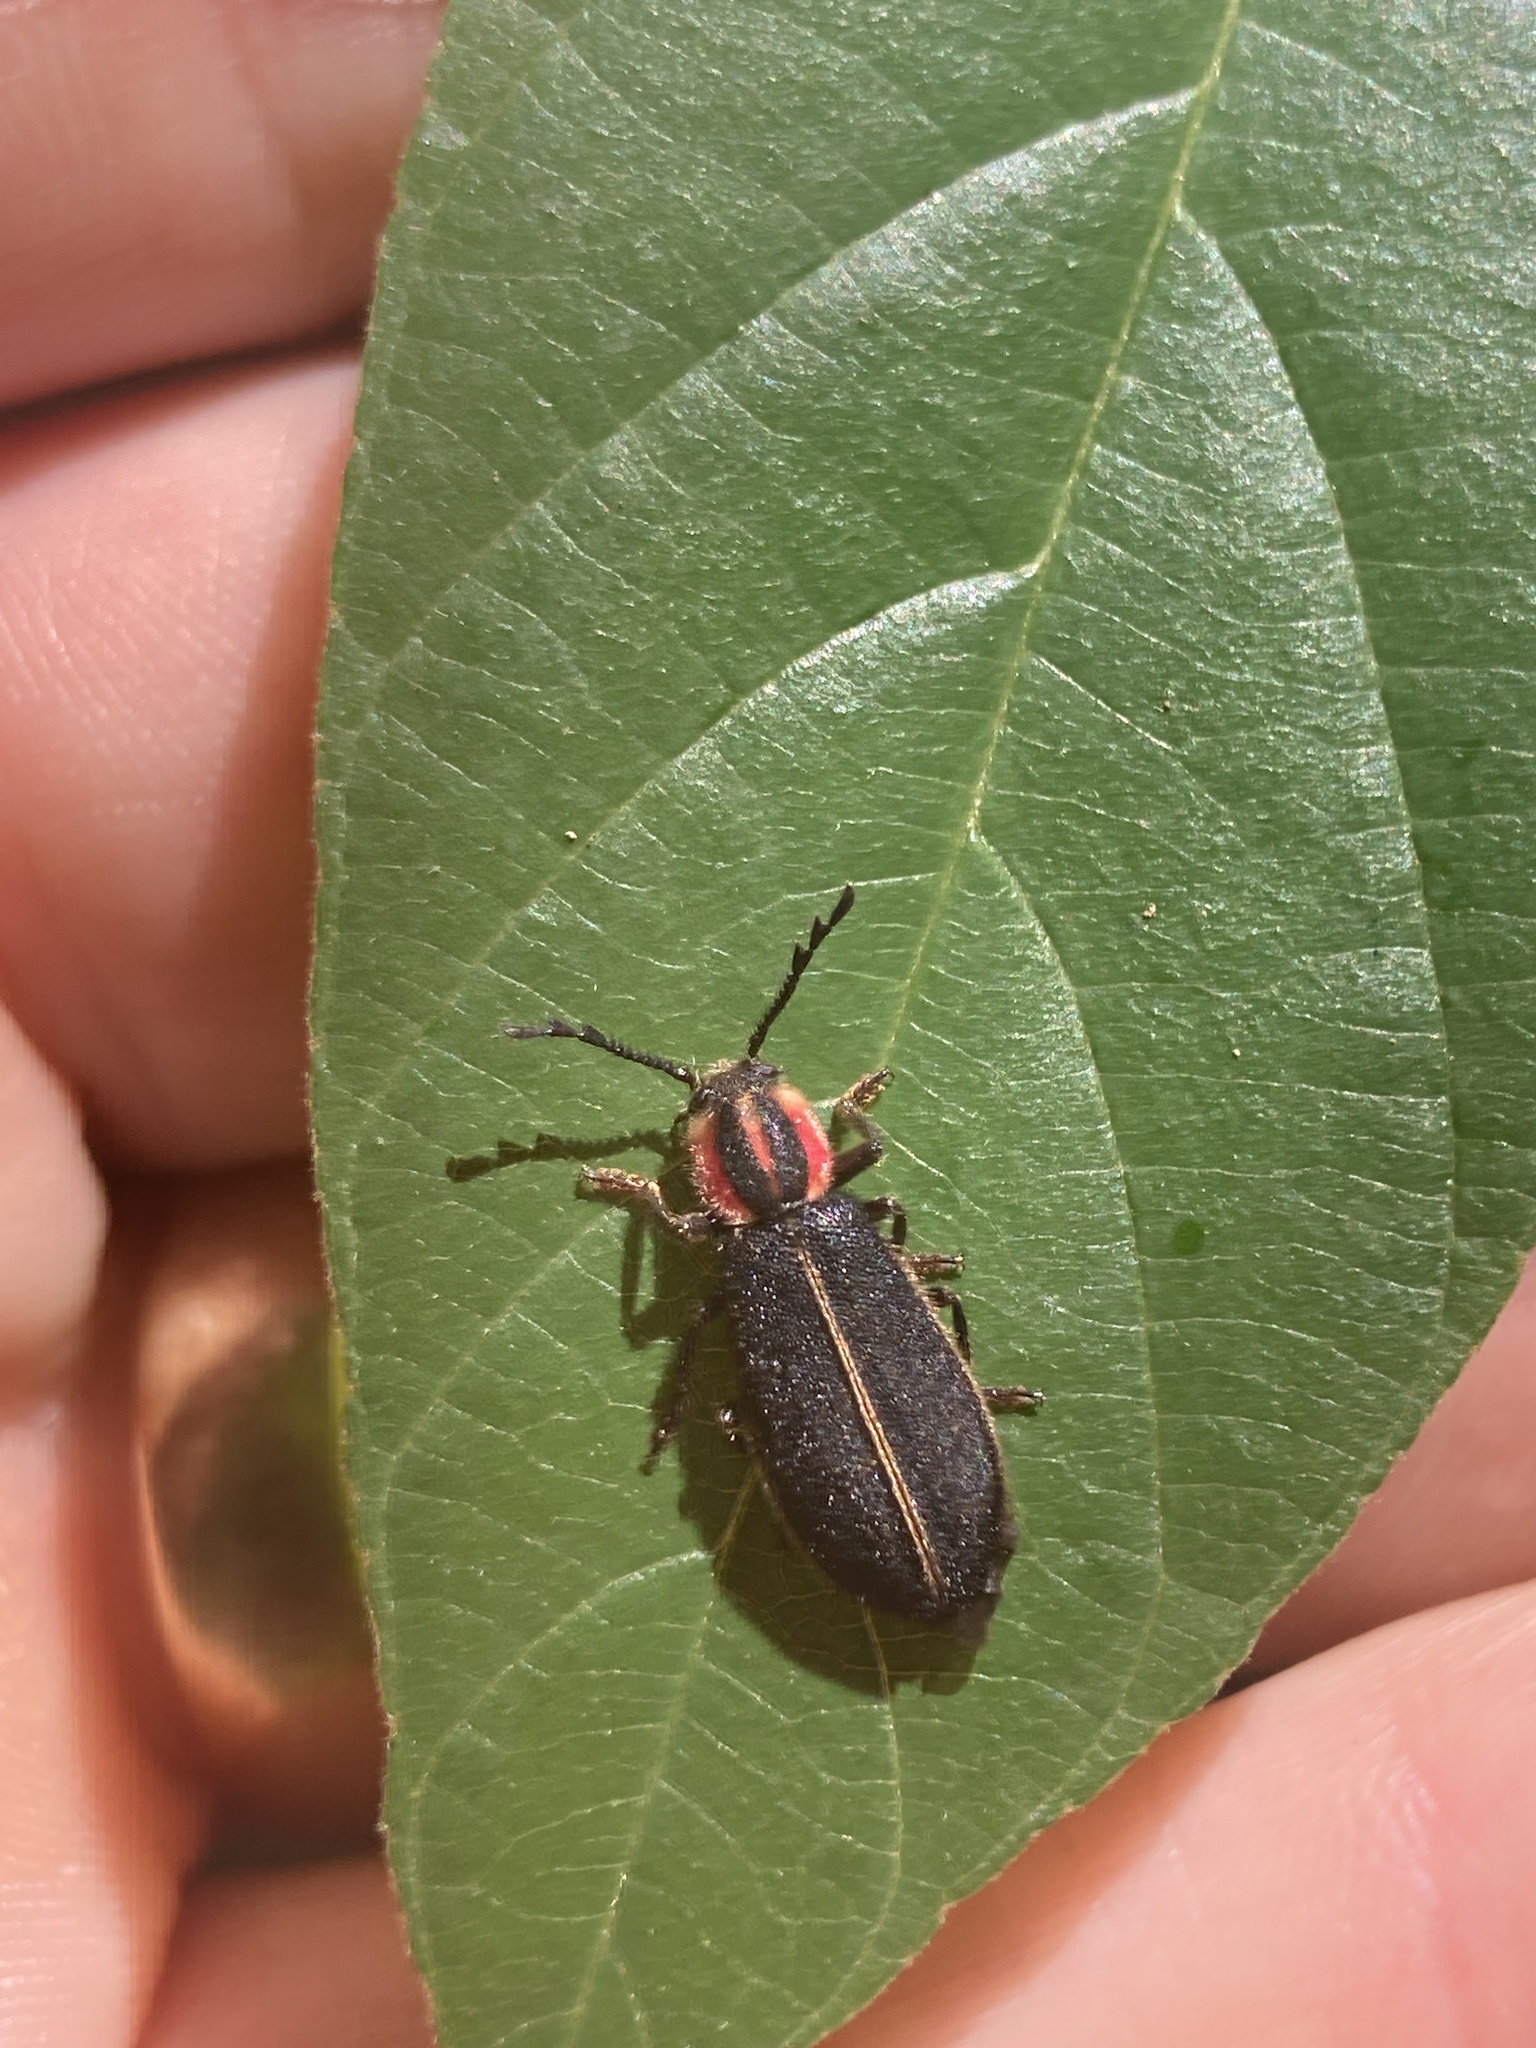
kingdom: Animalia
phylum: Arthropoda
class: Insecta
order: Coleoptera
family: Cleridae
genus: Chariessa
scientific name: Chariessa pilosa
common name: Pilose checkered beetle
